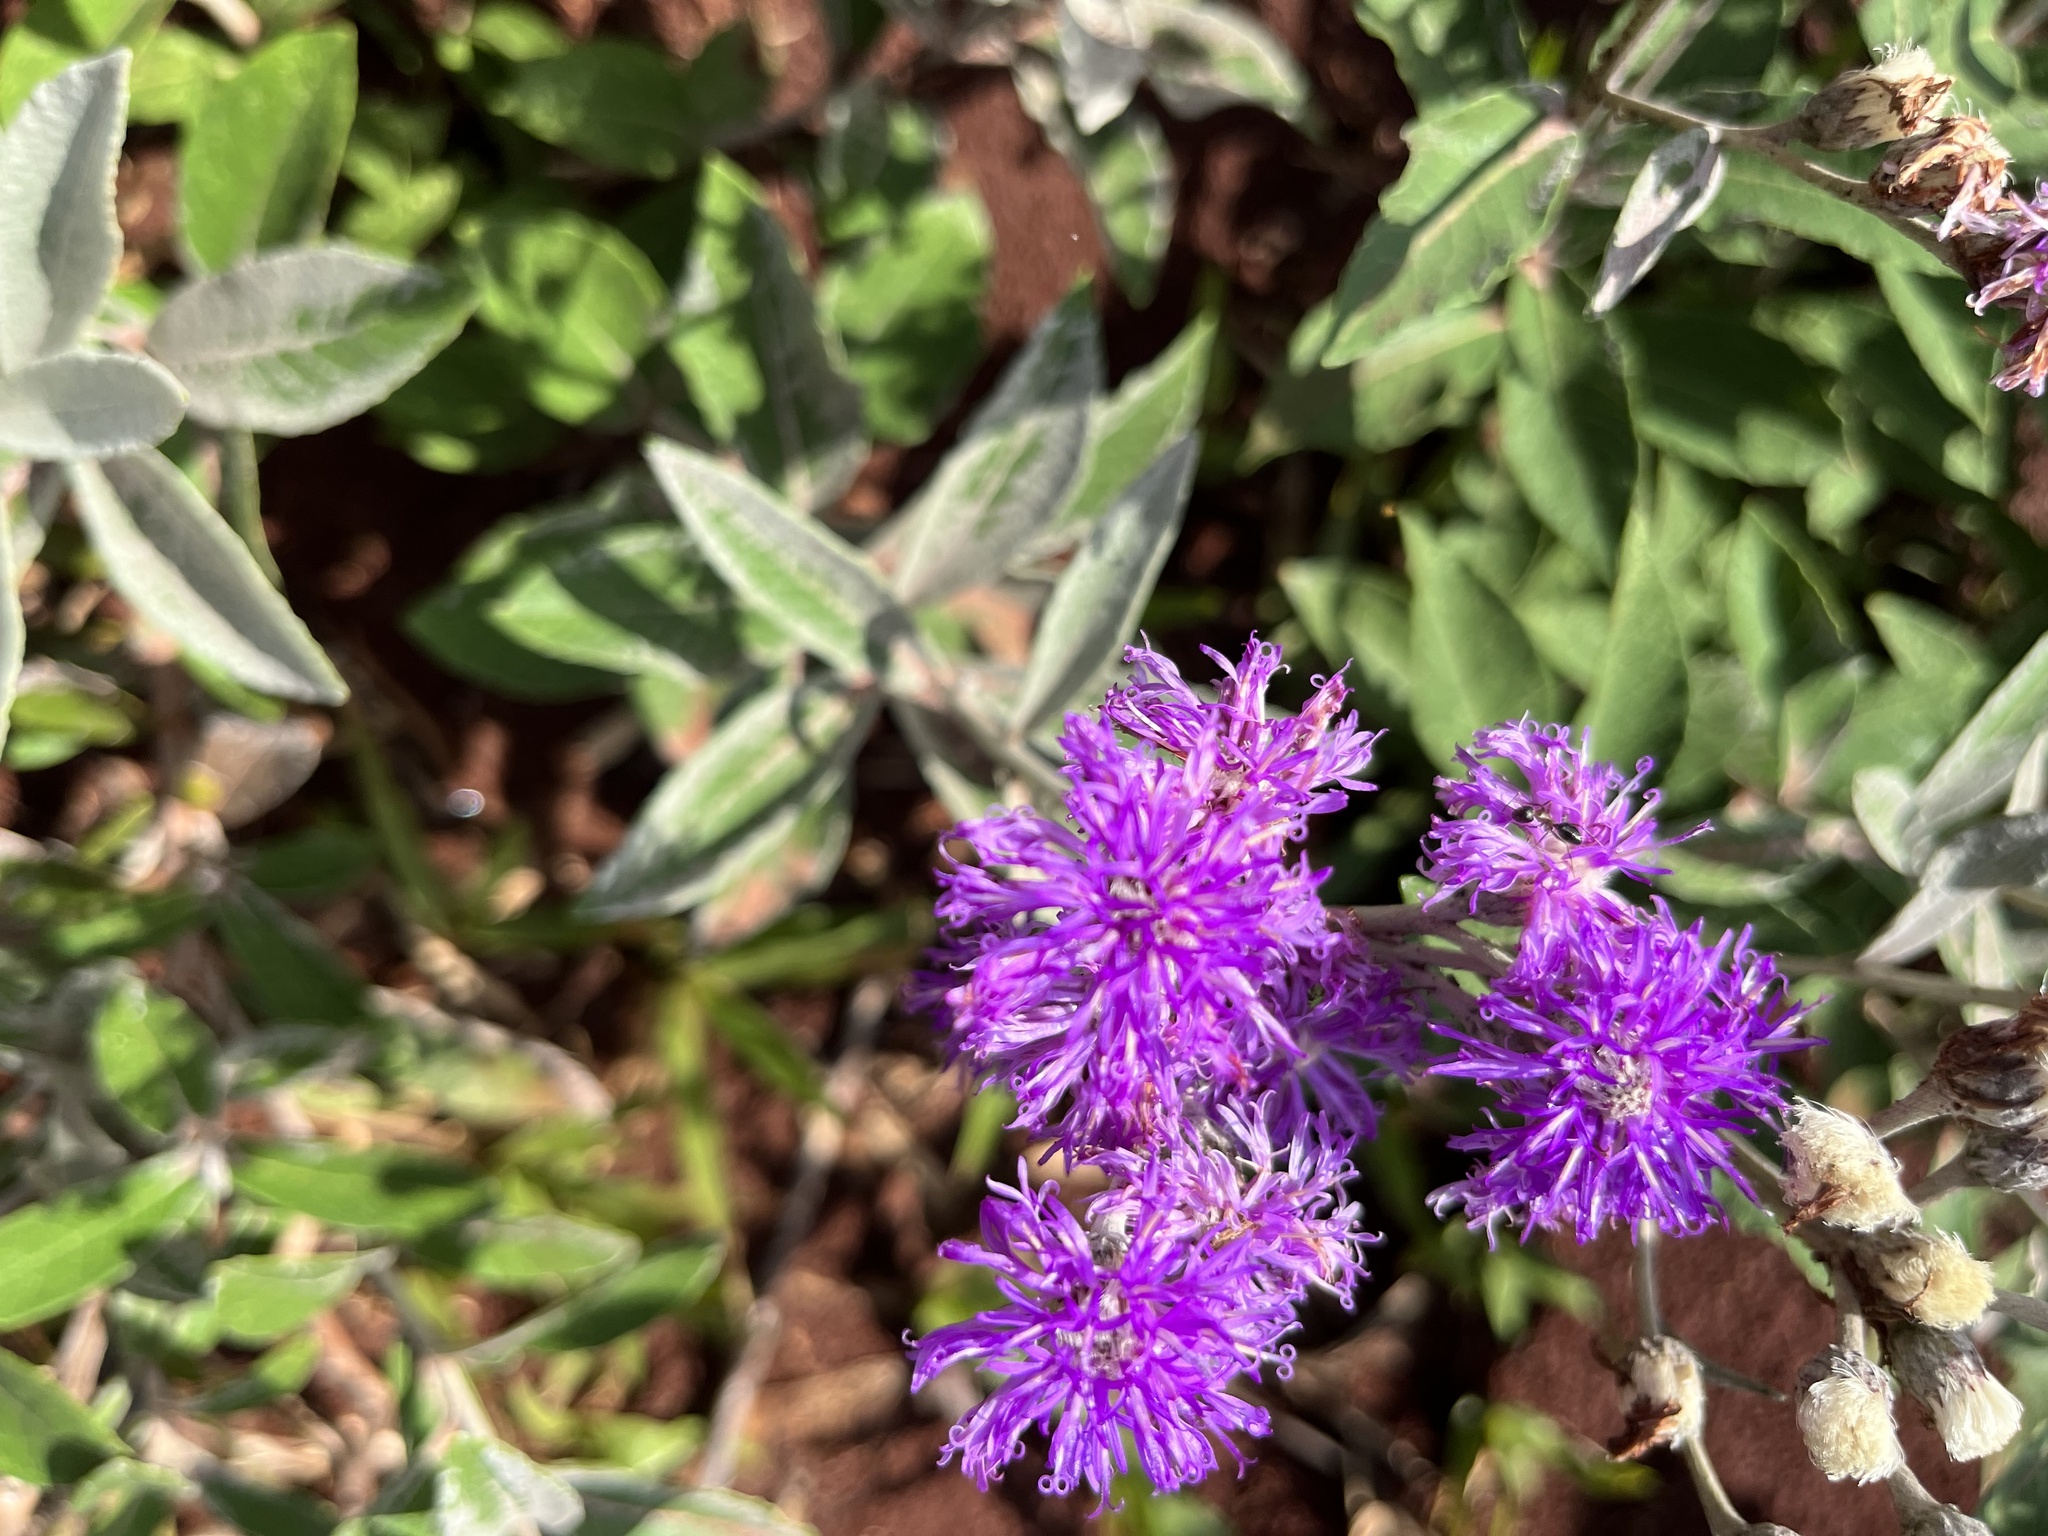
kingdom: Plantae
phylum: Tracheophyta
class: Magnoliopsida
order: Asterales
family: Asteraceae
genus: Lessingianthus
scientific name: Lessingianthus mollissimus
